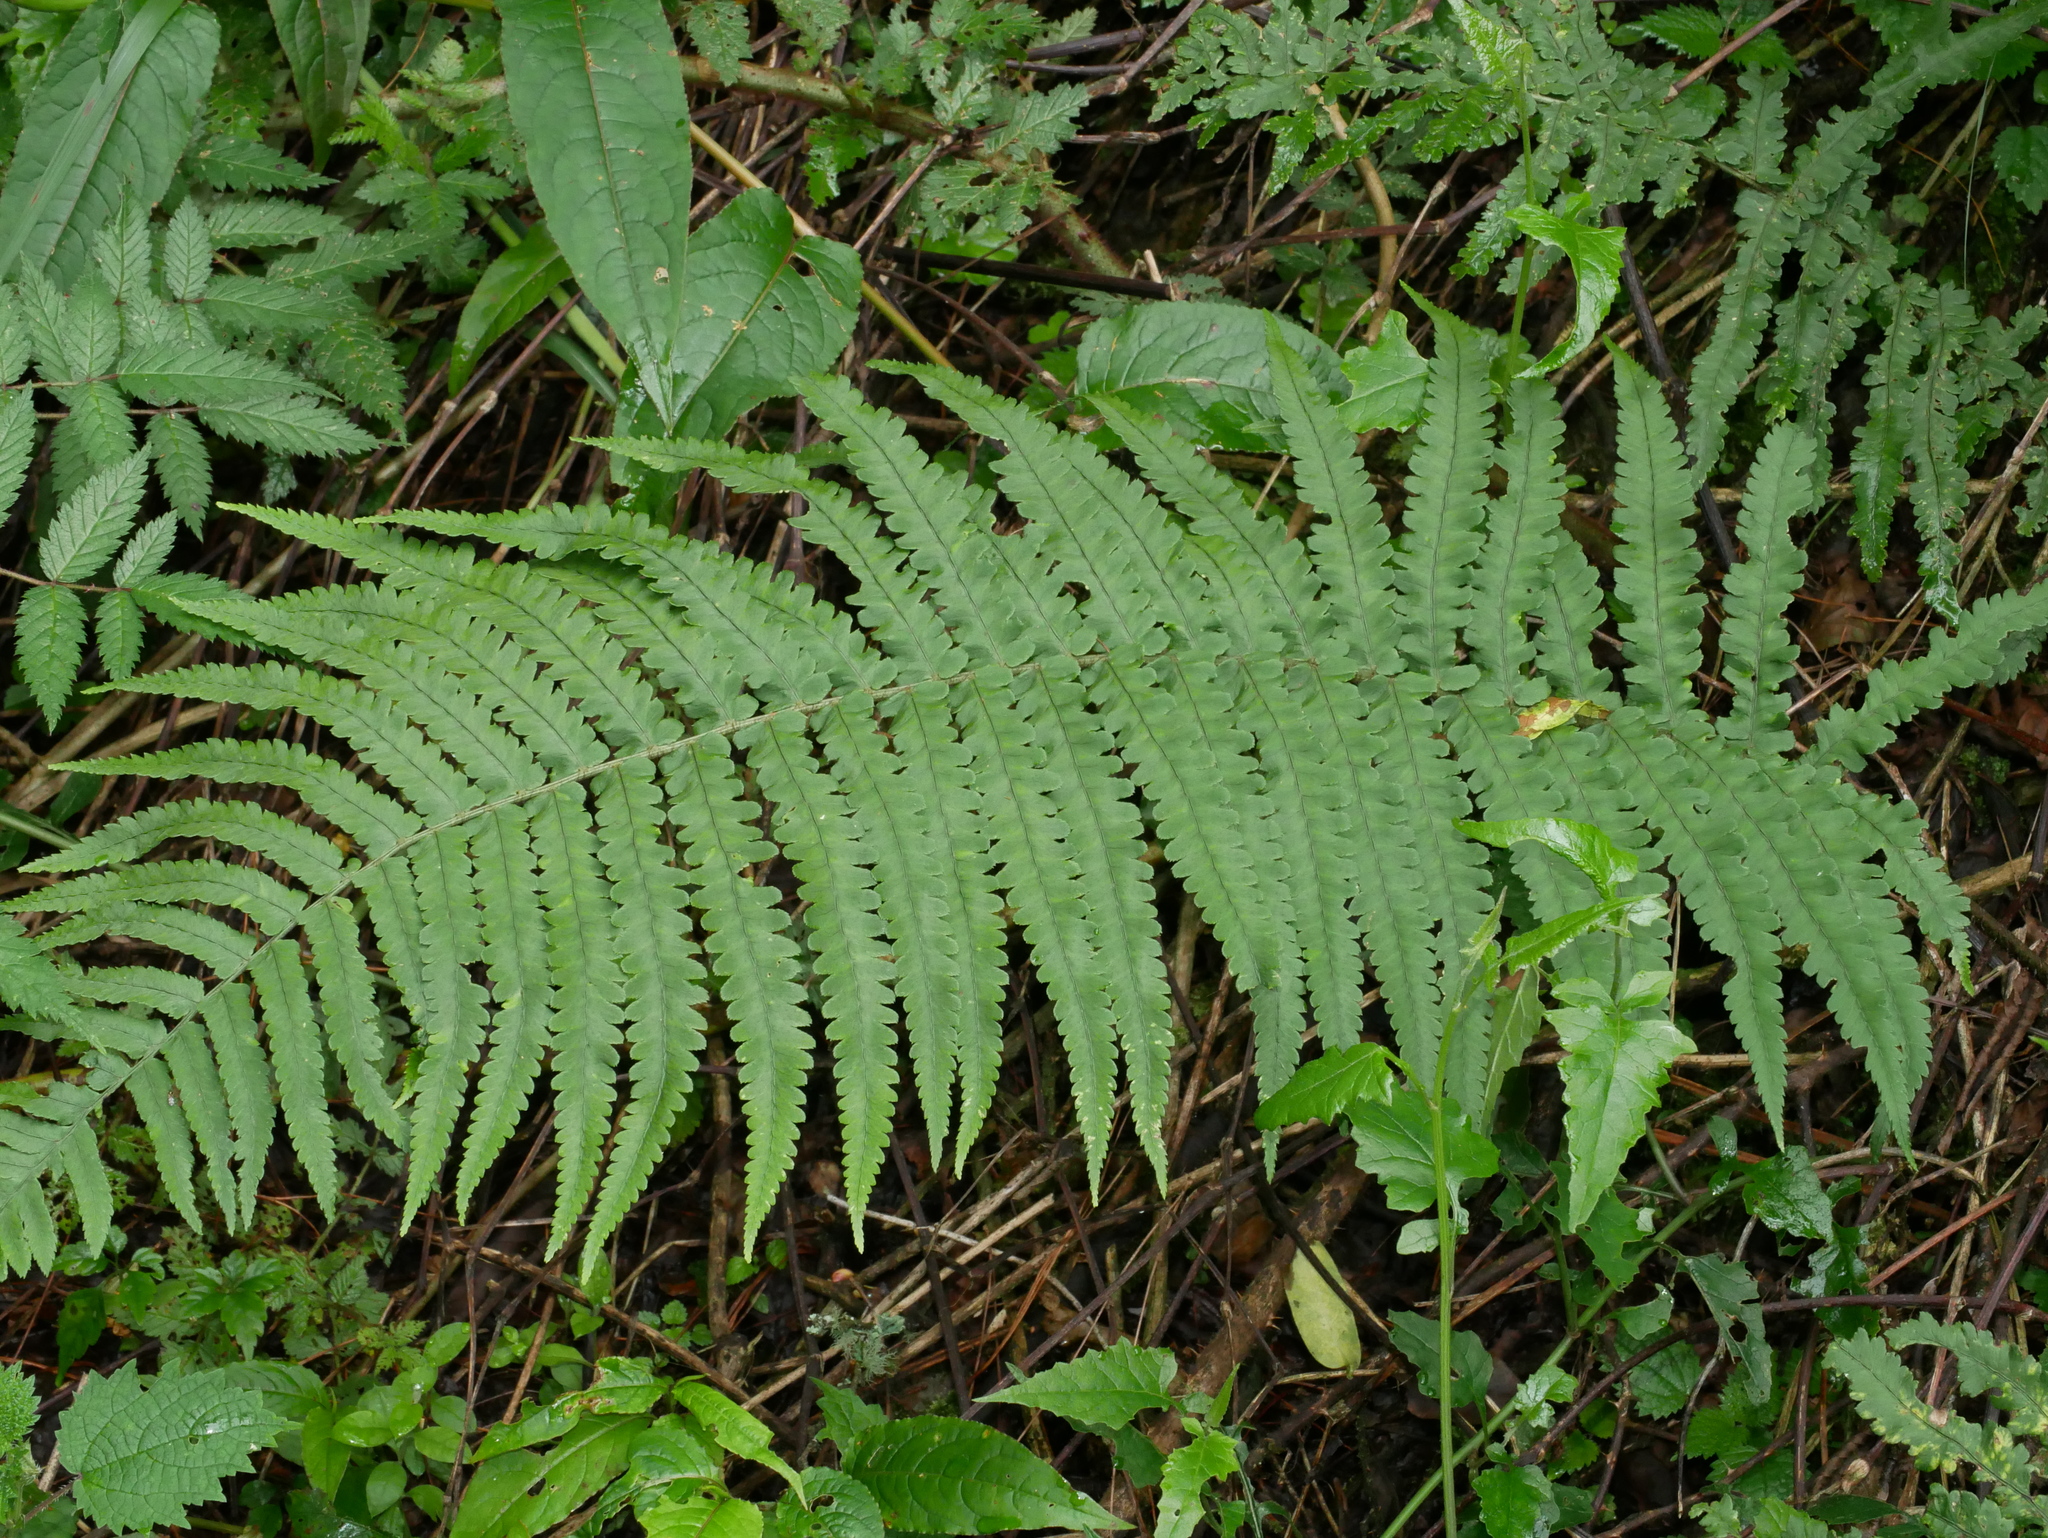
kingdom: Plantae
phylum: Tracheophyta
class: Polypodiopsida
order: Polypodiales
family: Dryopteridaceae
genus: Dryopteris
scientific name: Dryopteris stenolepis
